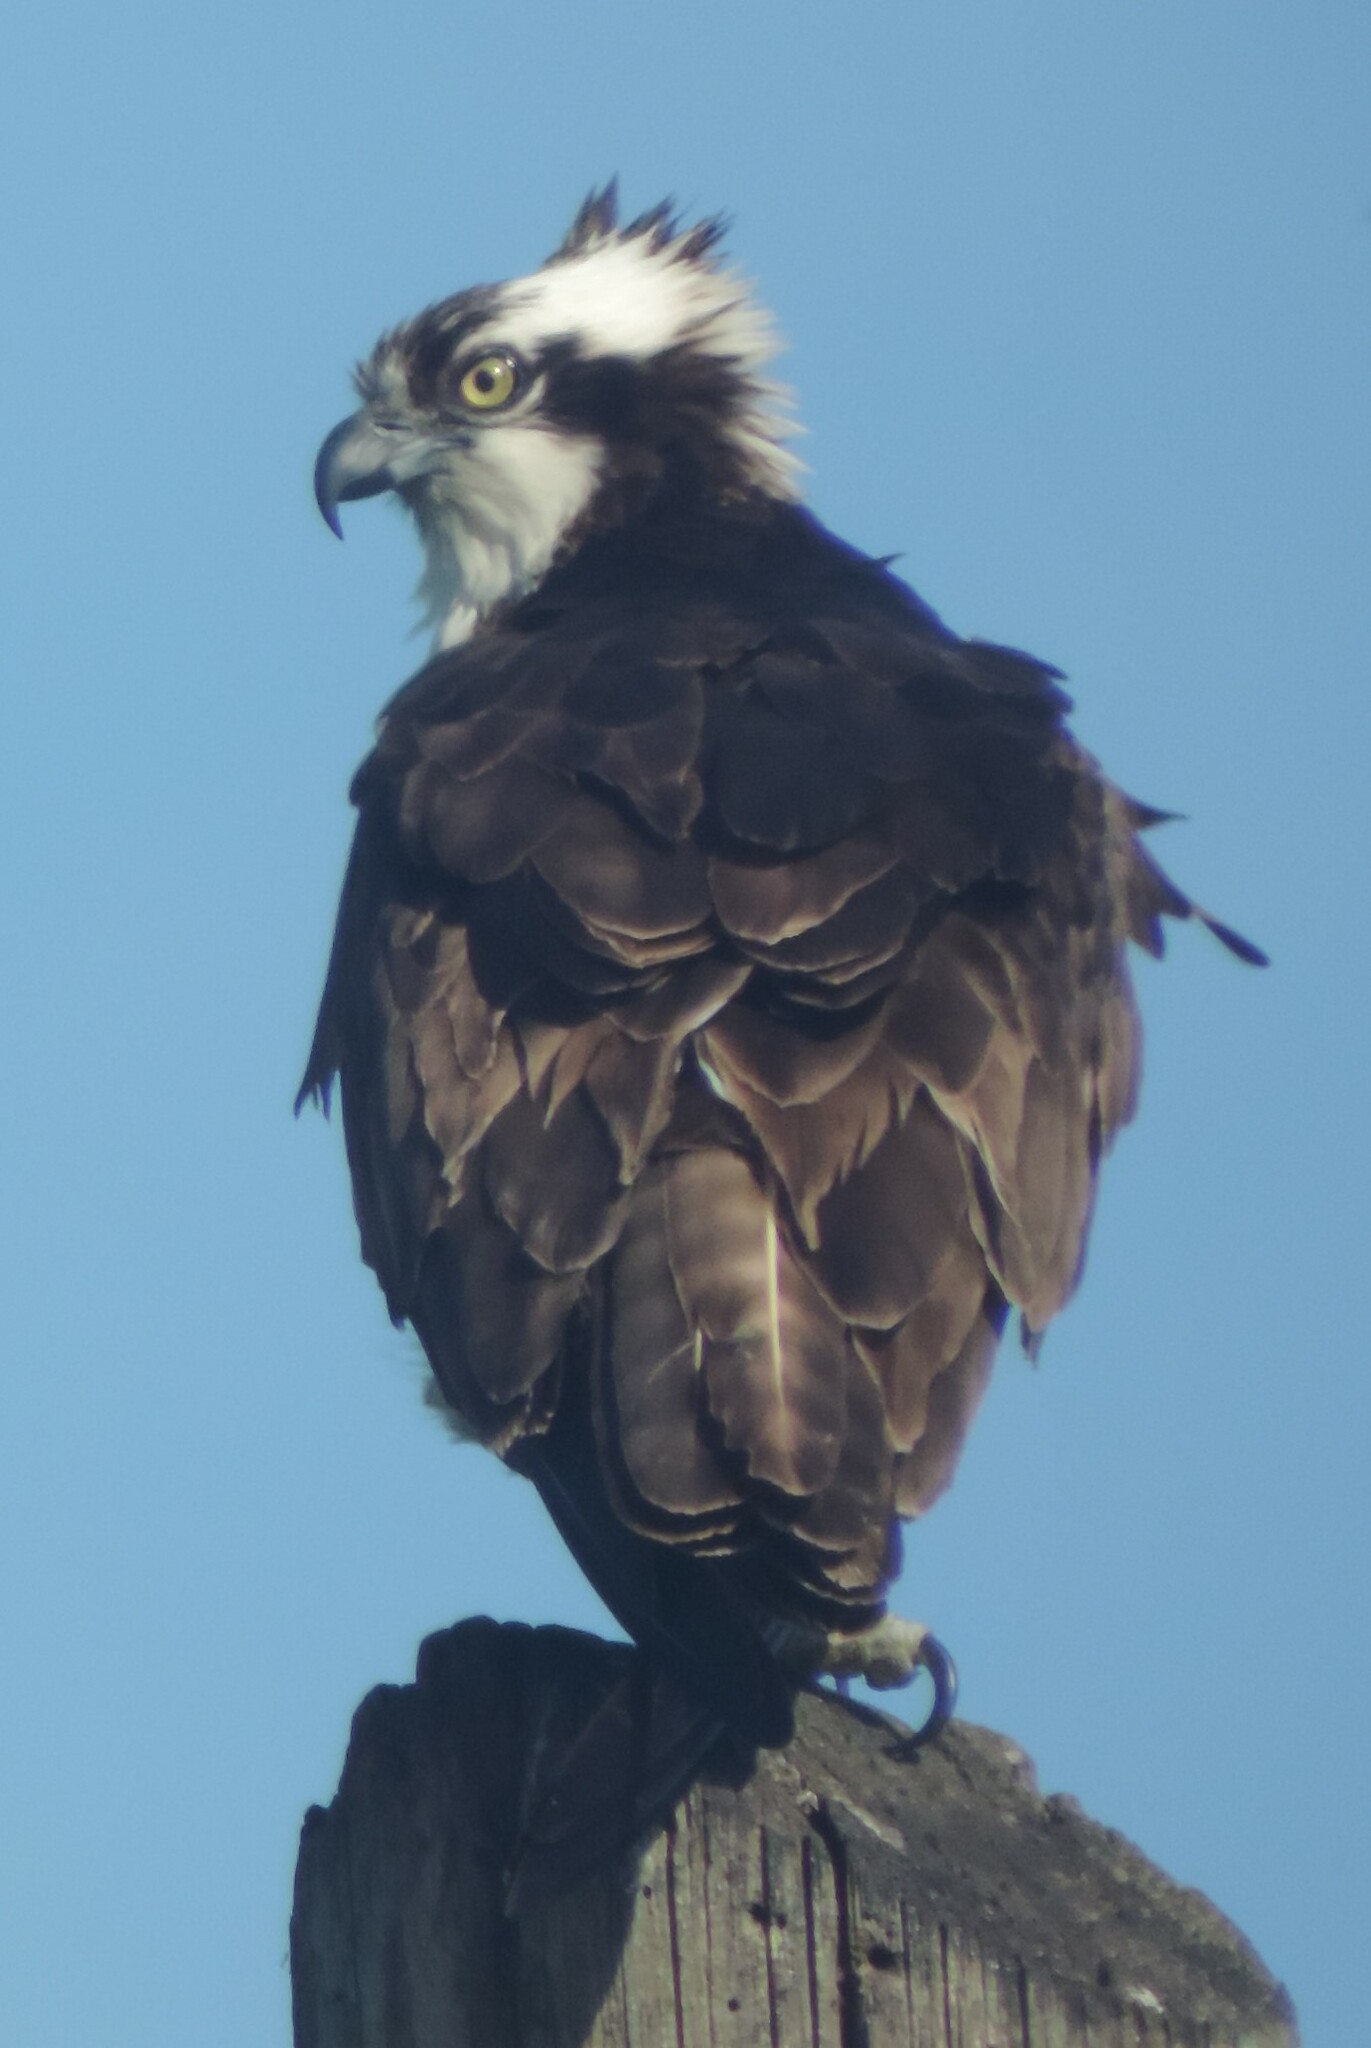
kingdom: Animalia
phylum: Chordata
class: Aves
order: Accipitriformes
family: Pandionidae
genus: Pandion
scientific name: Pandion haliaetus
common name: Osprey
